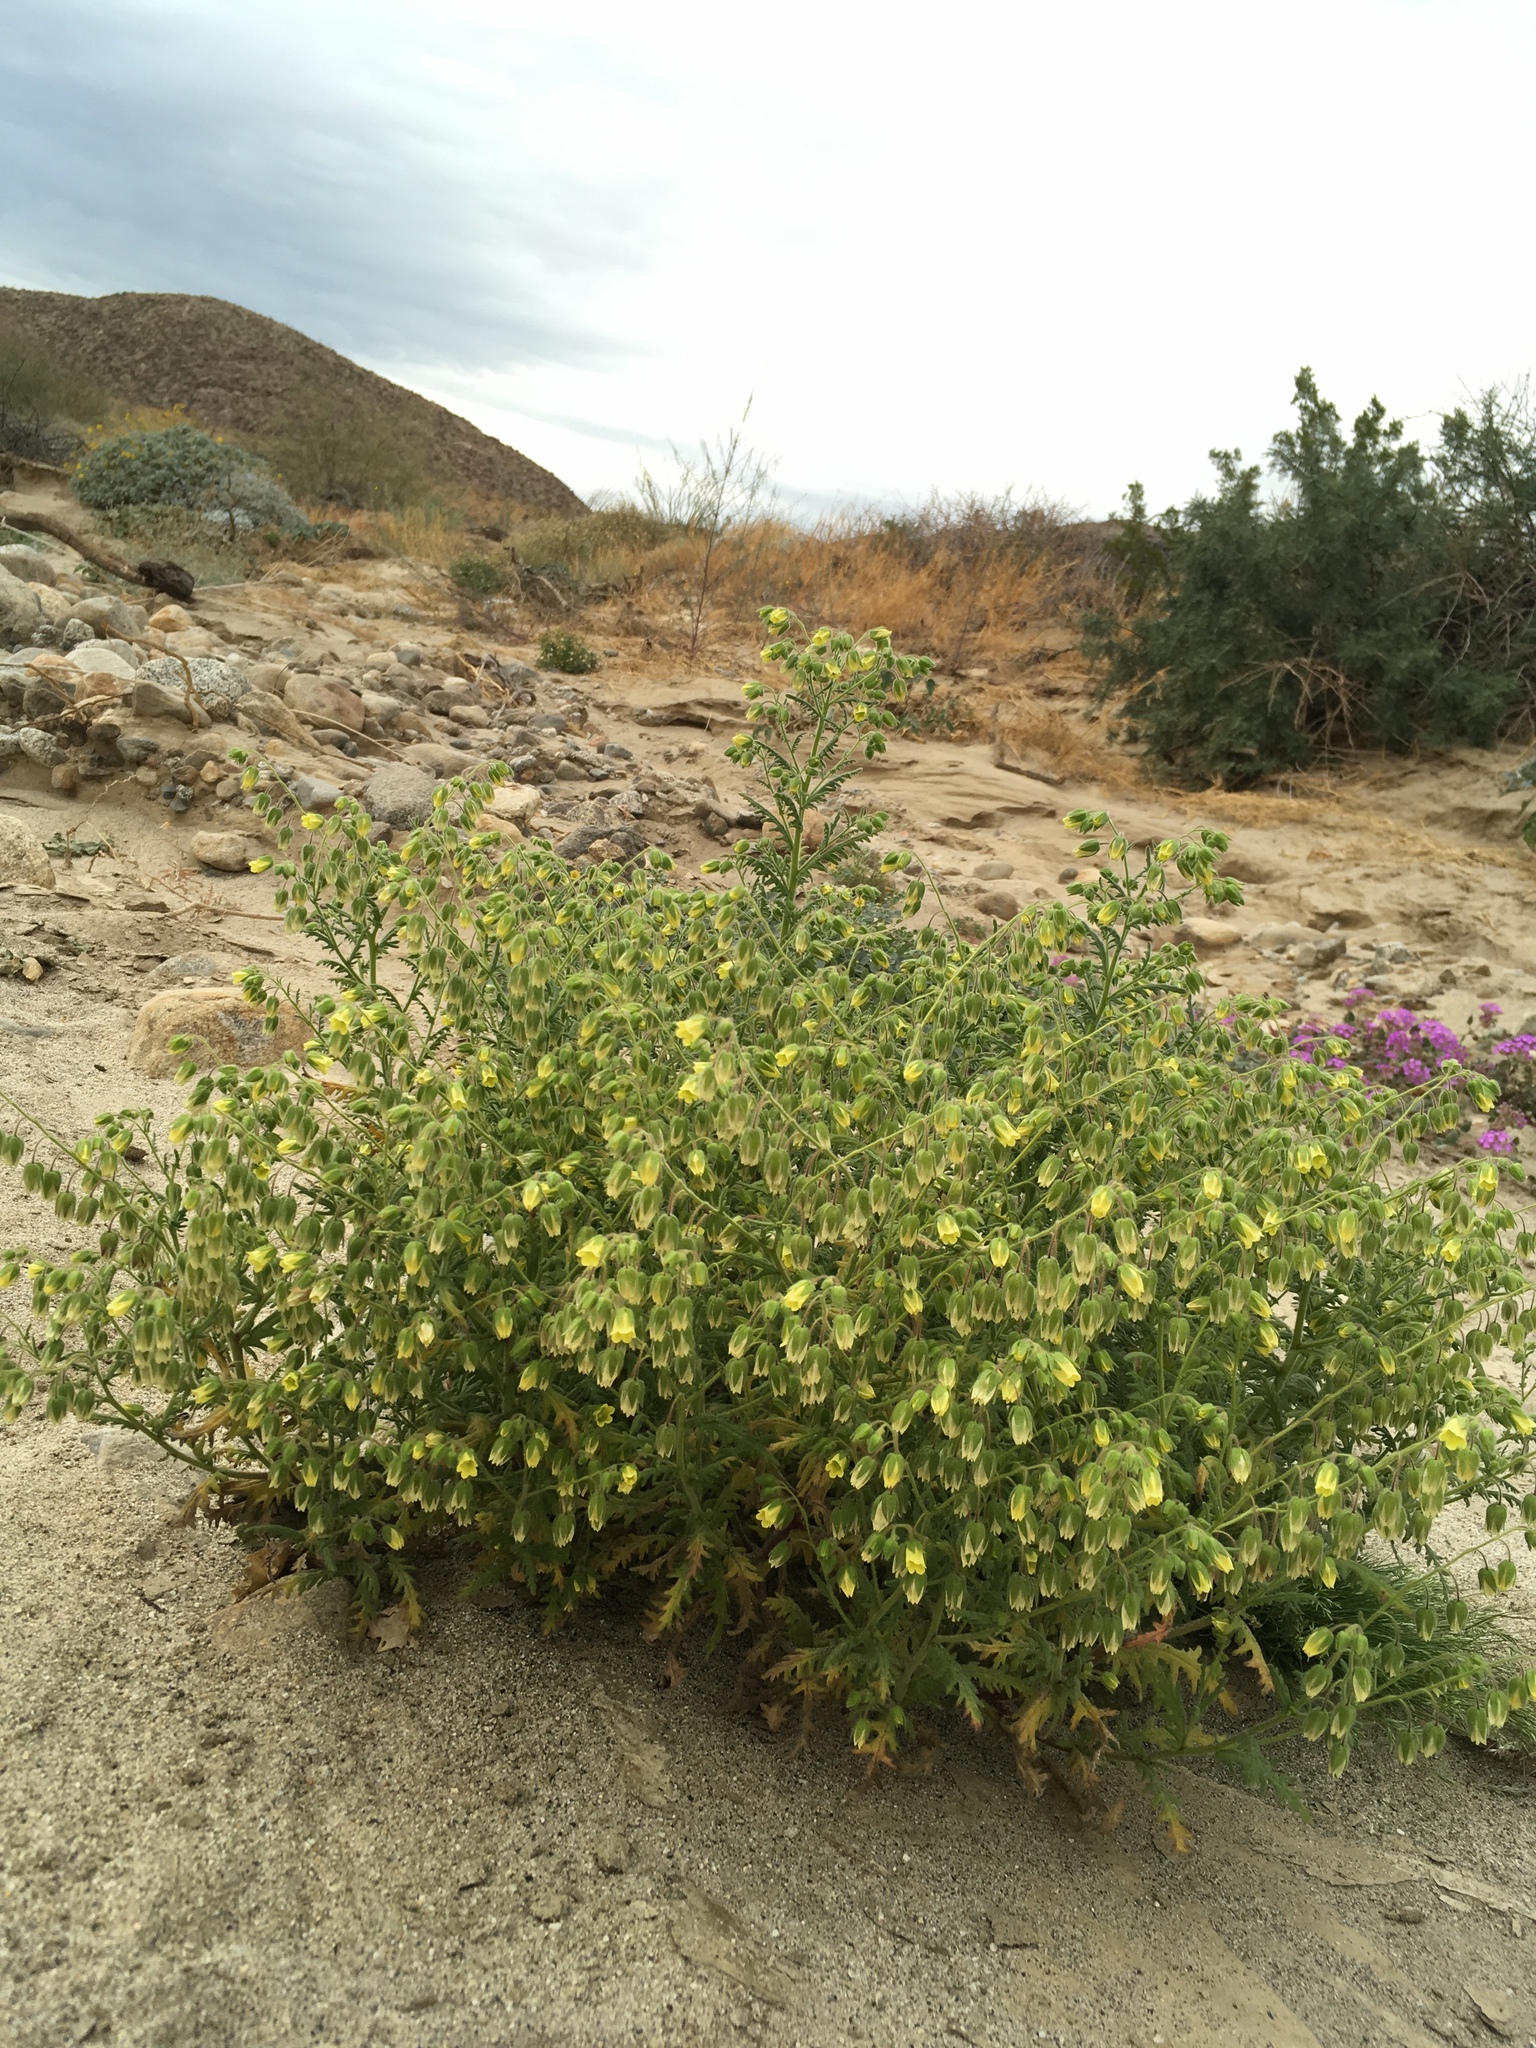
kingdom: Plantae
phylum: Tracheophyta
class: Magnoliopsida
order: Boraginales
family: Hydrophyllaceae
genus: Emmenanthe
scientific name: Emmenanthe penduliflora
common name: Whispering-bells
